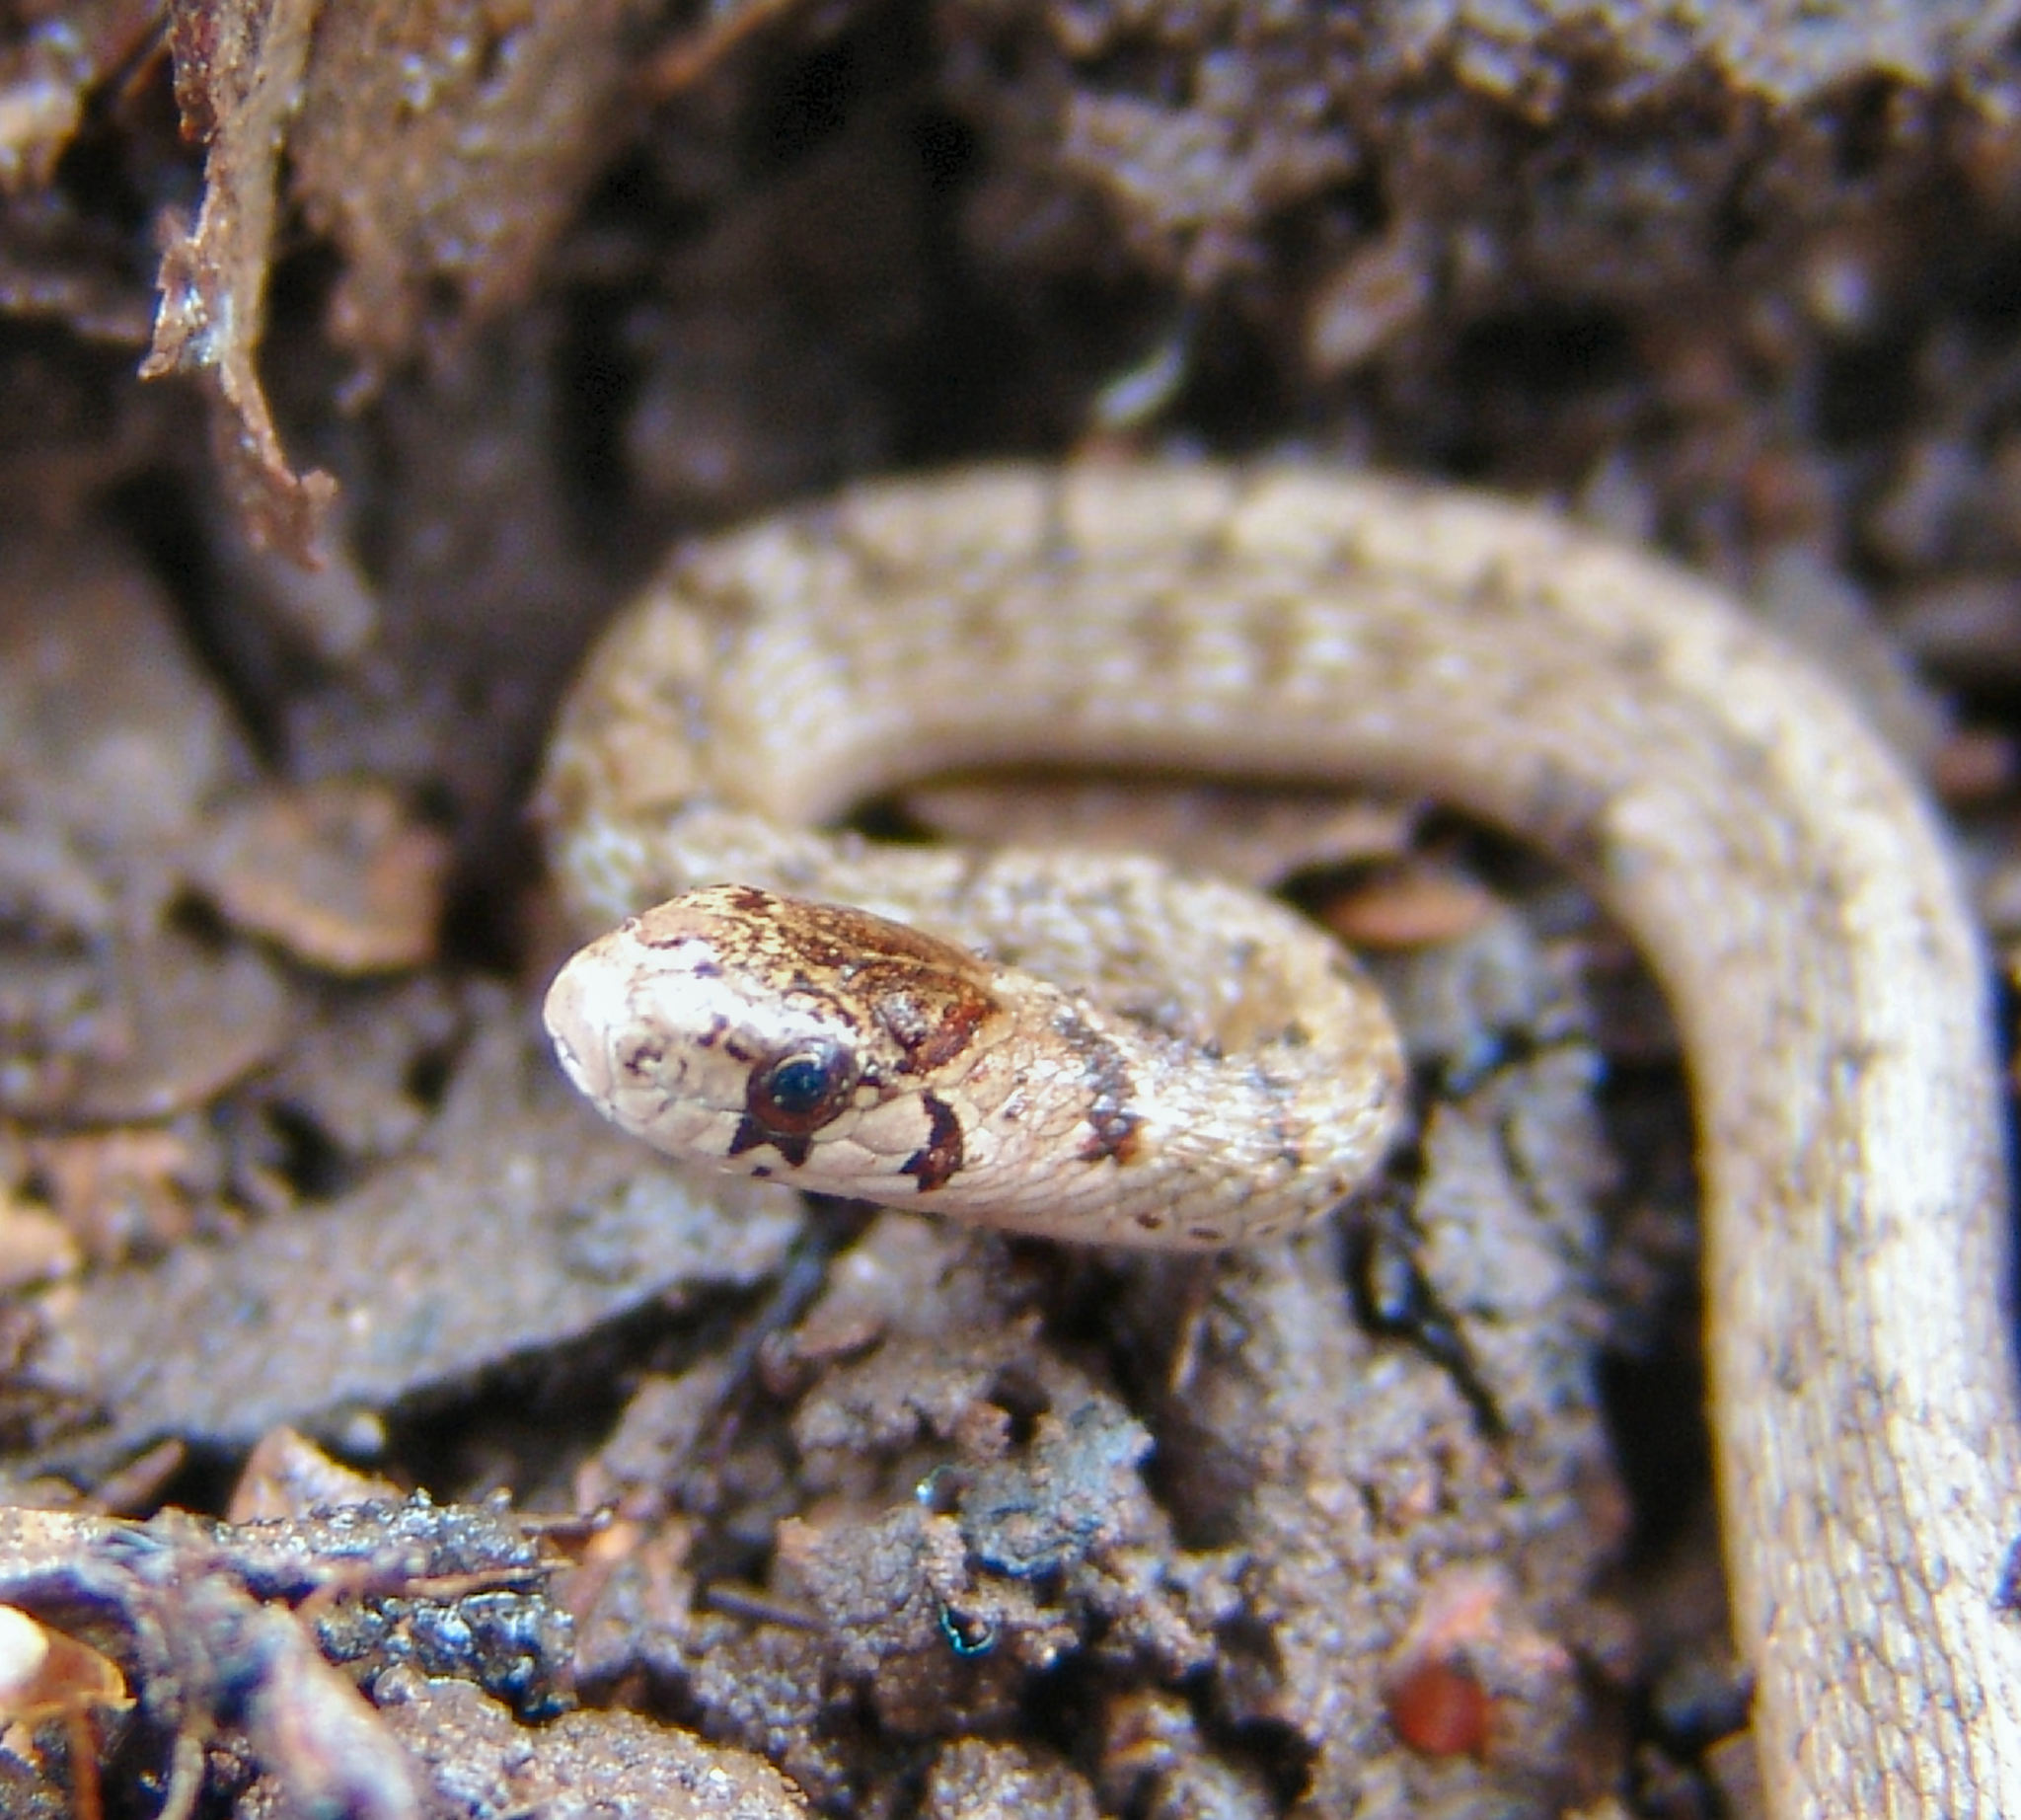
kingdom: Animalia
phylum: Chordata
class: Squamata
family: Colubridae
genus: Storeria
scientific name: Storeria dekayi
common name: (dekay’s) brown snake
